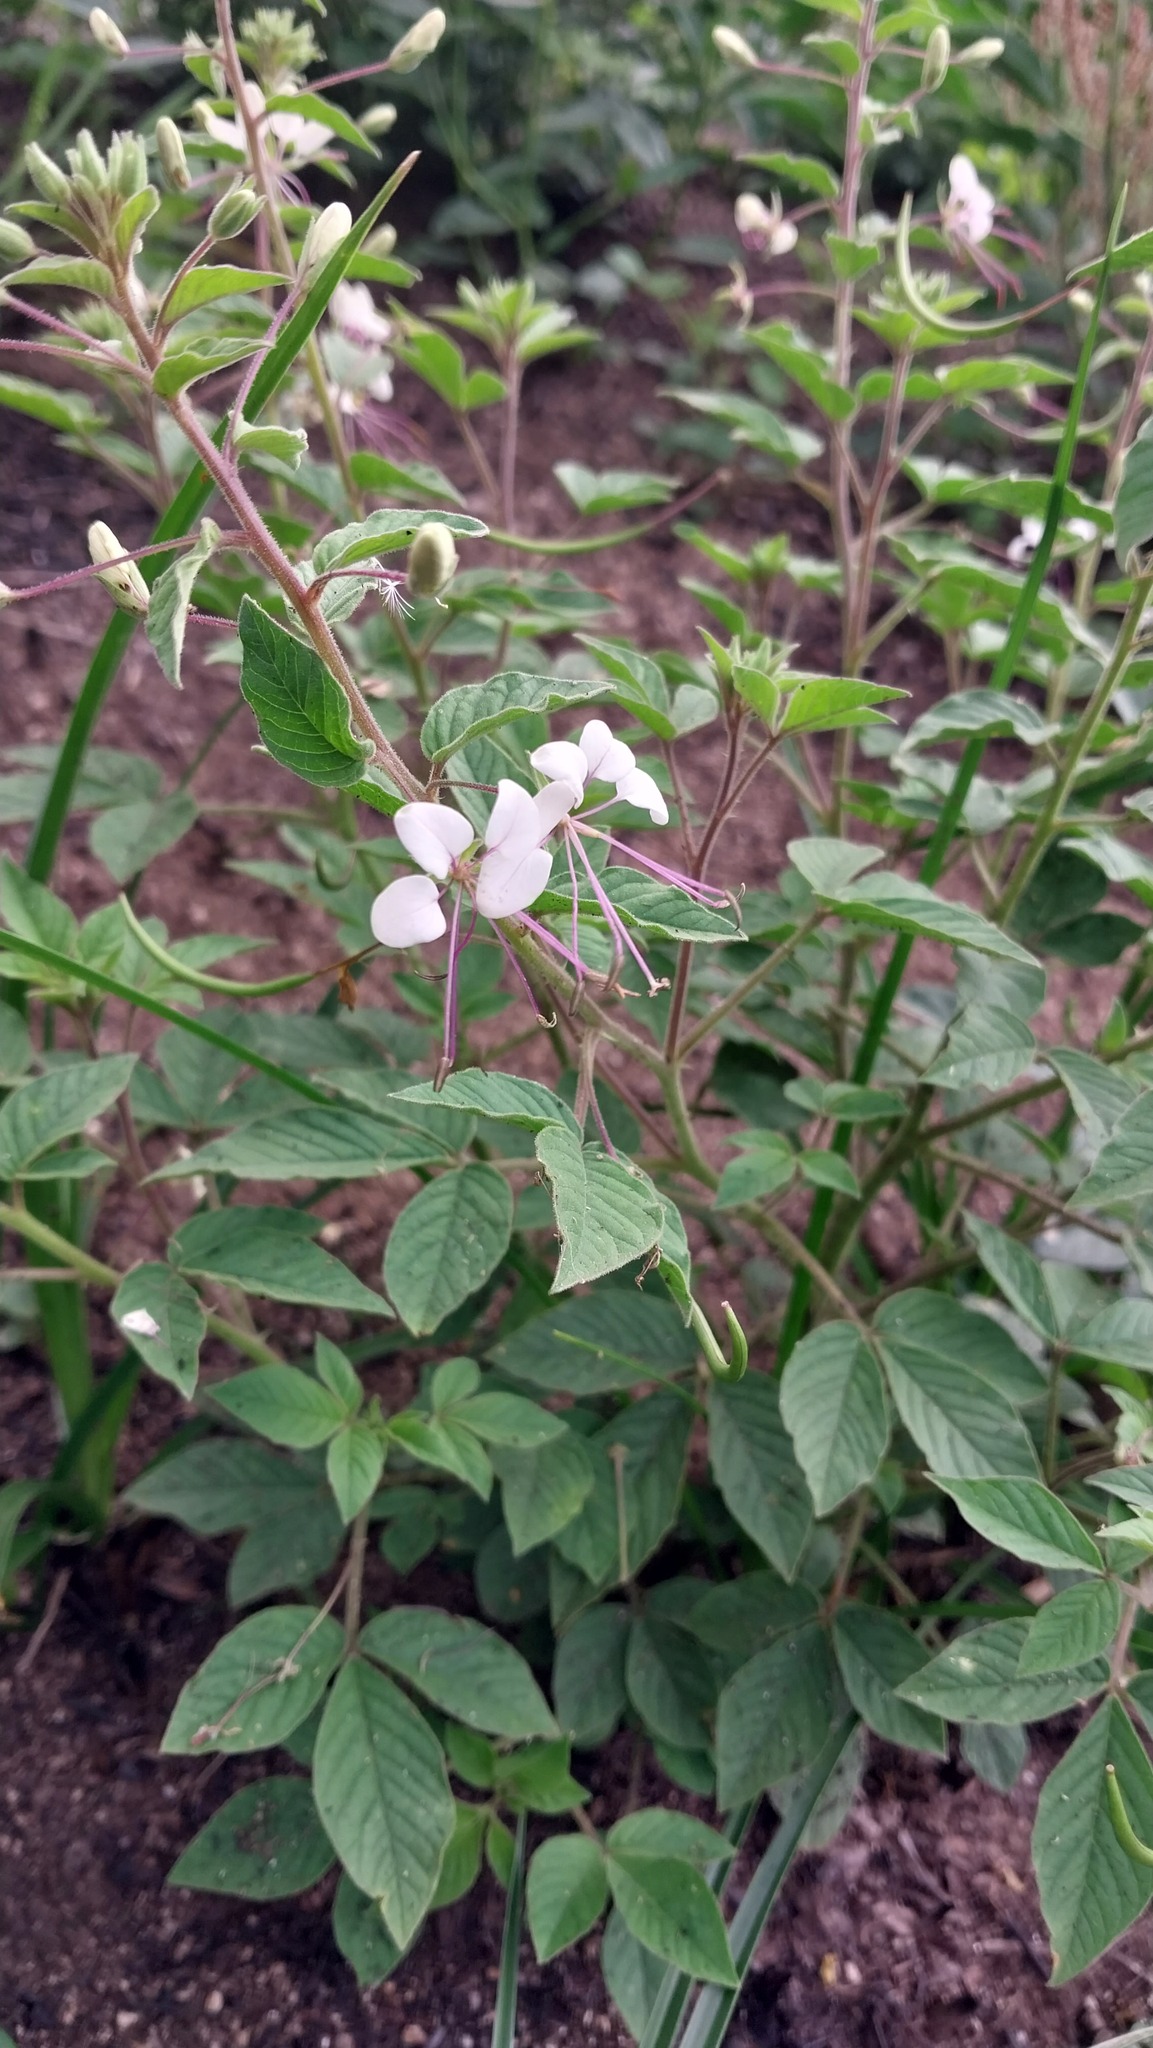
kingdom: Plantae
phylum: Tracheophyta
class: Magnoliopsida
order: Brassicales
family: Cleomaceae
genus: Tarenaya
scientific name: Tarenaya cordobensis
